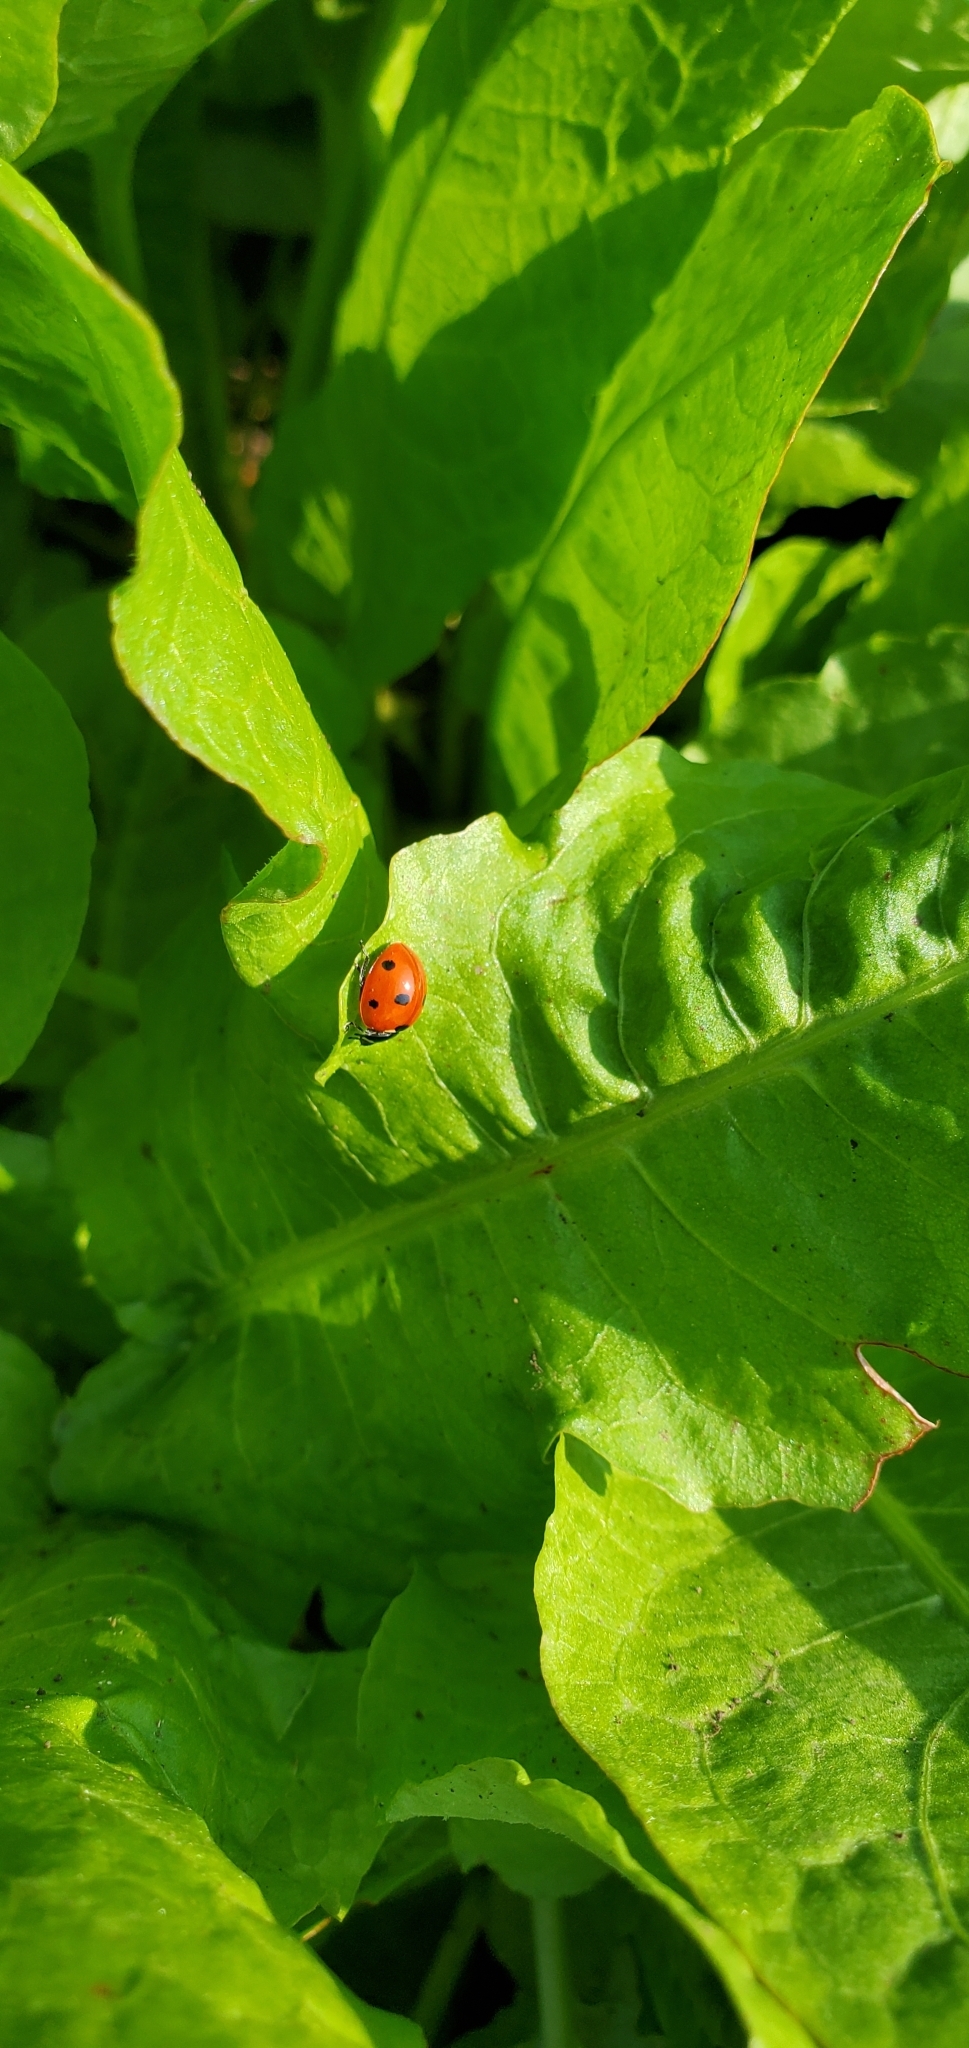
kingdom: Animalia
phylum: Arthropoda
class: Insecta
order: Coleoptera
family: Coccinellidae
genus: Coccinella
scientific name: Coccinella septempunctata
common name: Sevenspotted lady beetle
